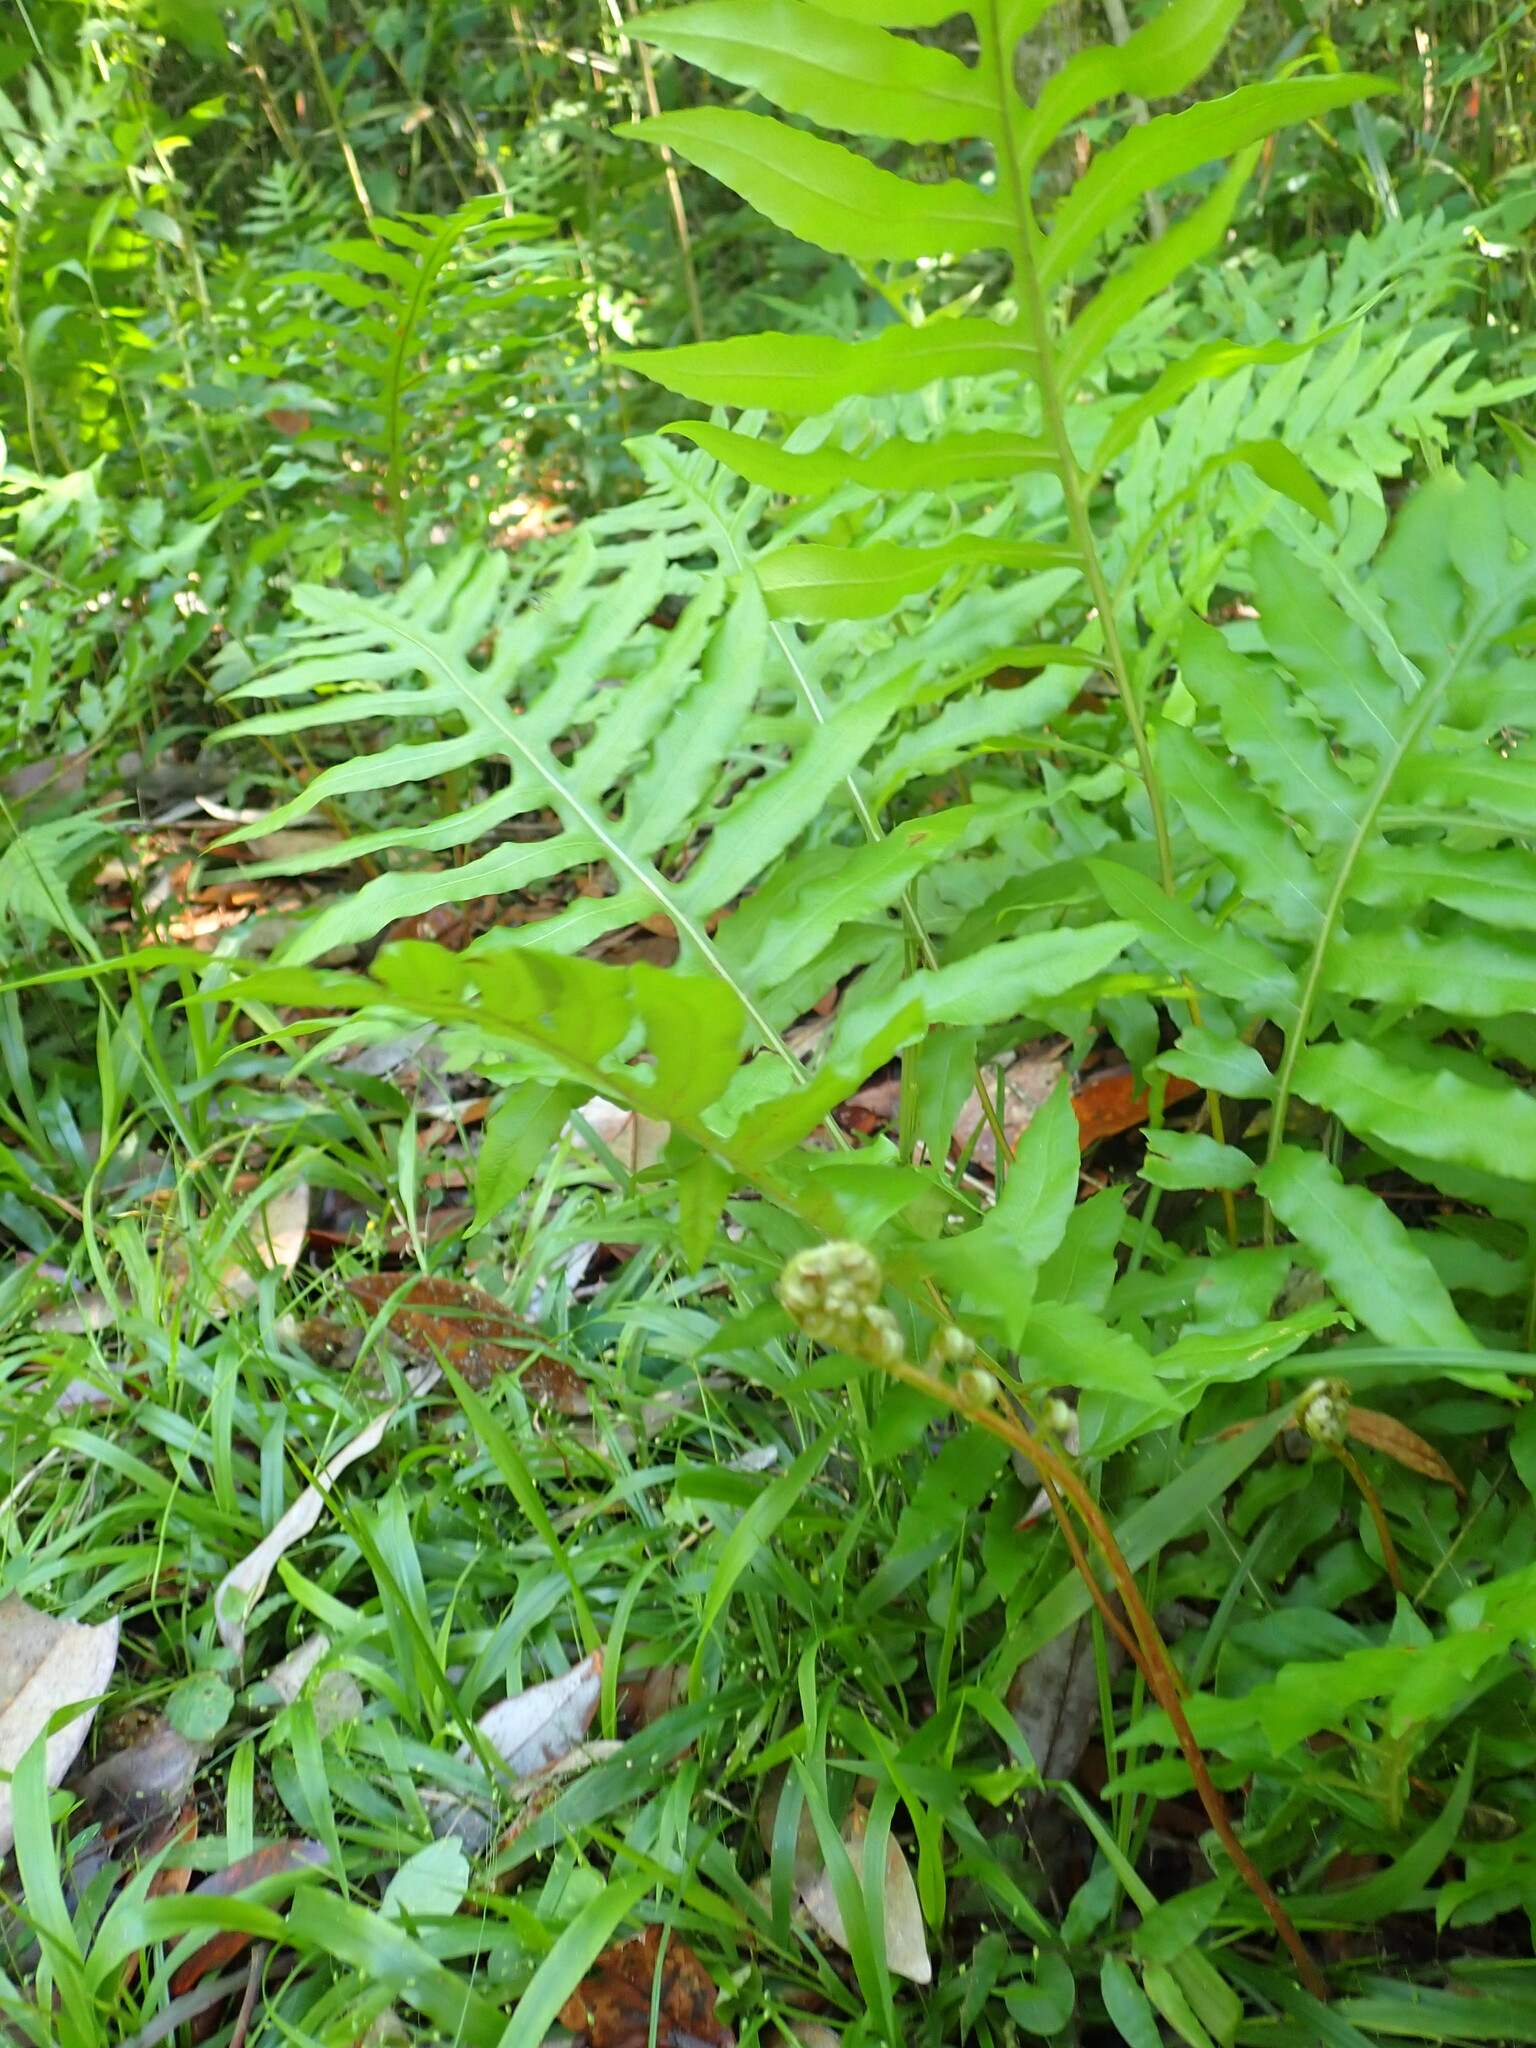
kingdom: Plantae
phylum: Tracheophyta
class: Polypodiopsida
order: Polypodiales
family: Blechnaceae
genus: Lorinseria
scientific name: Lorinseria areolata
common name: Dwarf chain fern
